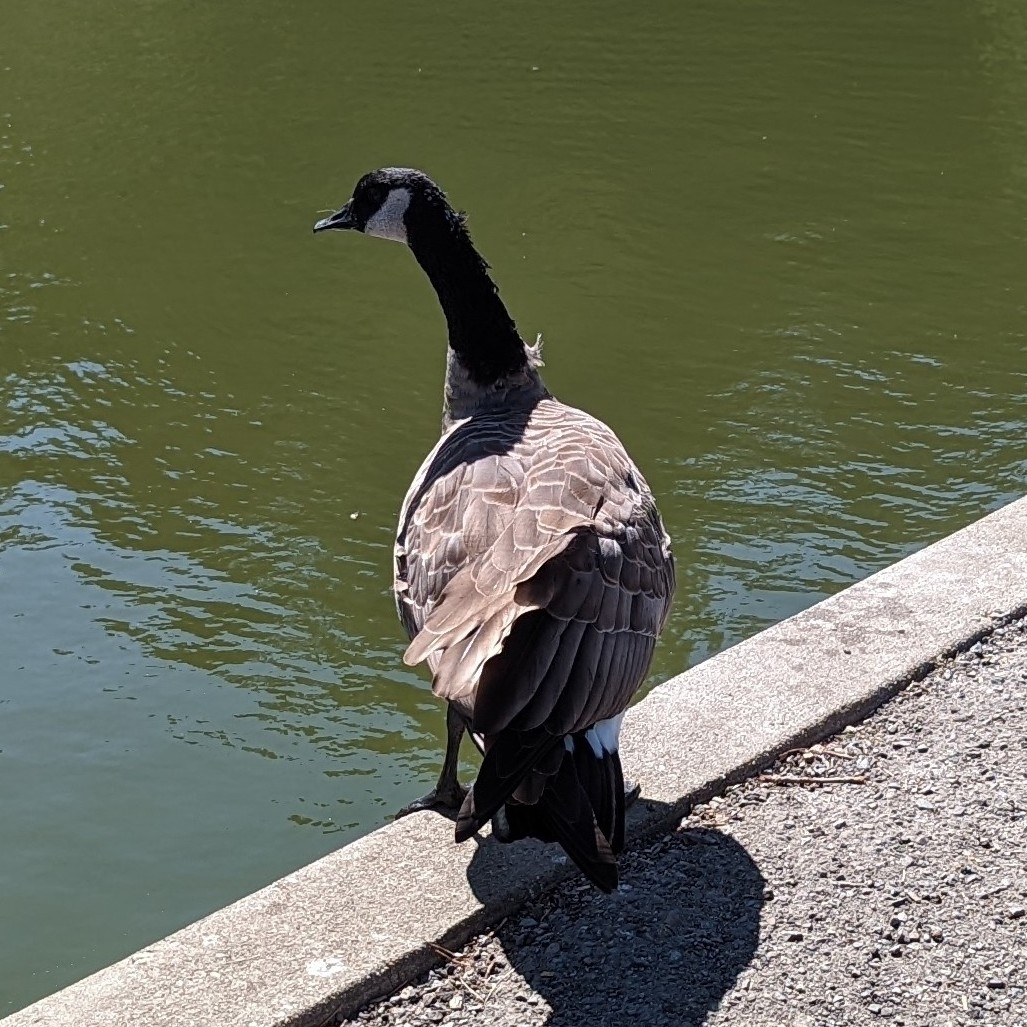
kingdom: Animalia
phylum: Chordata
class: Aves
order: Anseriformes
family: Anatidae
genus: Branta
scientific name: Branta canadensis
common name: Canada goose
